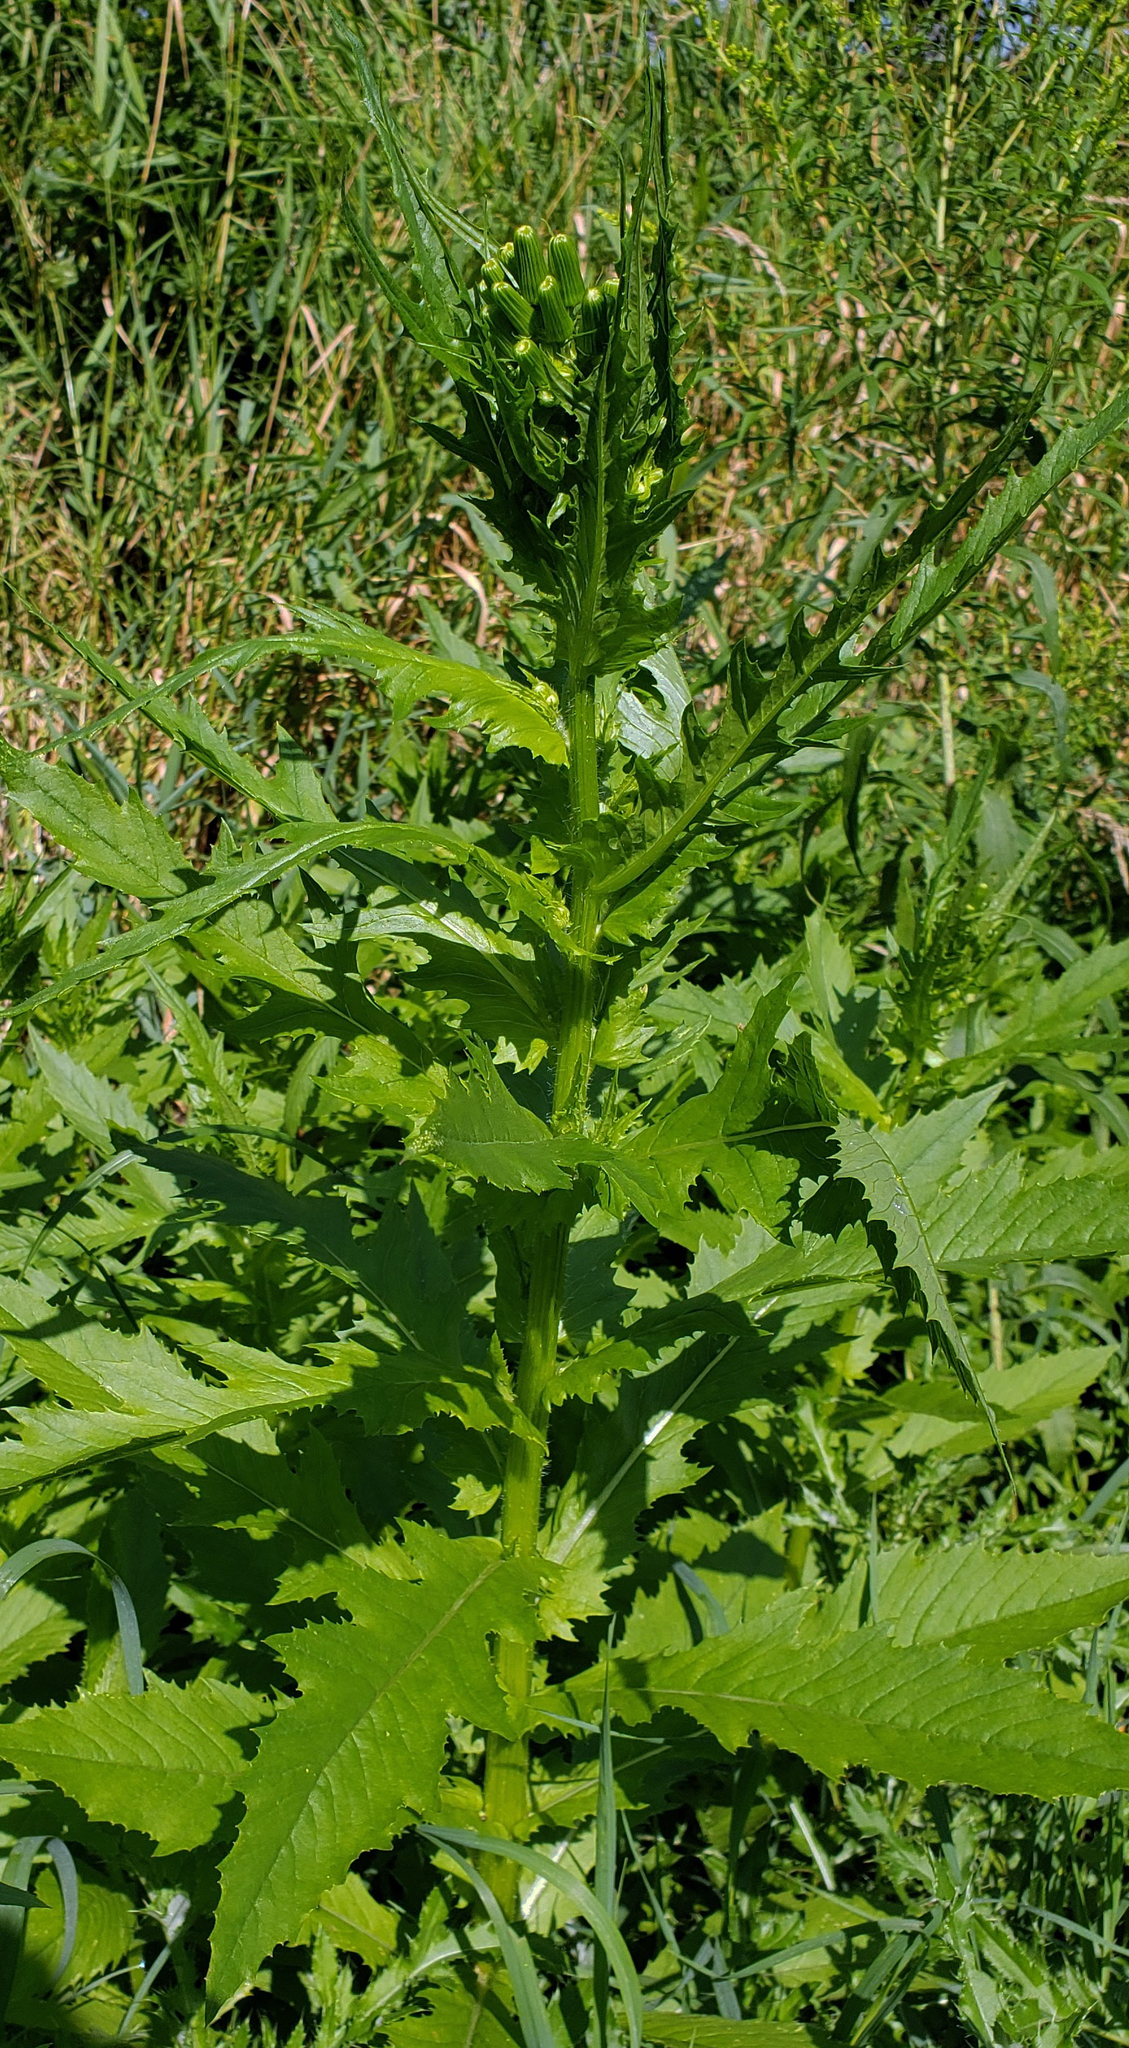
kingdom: Plantae
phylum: Tracheophyta
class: Magnoliopsida
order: Asterales
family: Asteraceae
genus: Erechtites
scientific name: Erechtites hieraciifolius
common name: American burnweed
